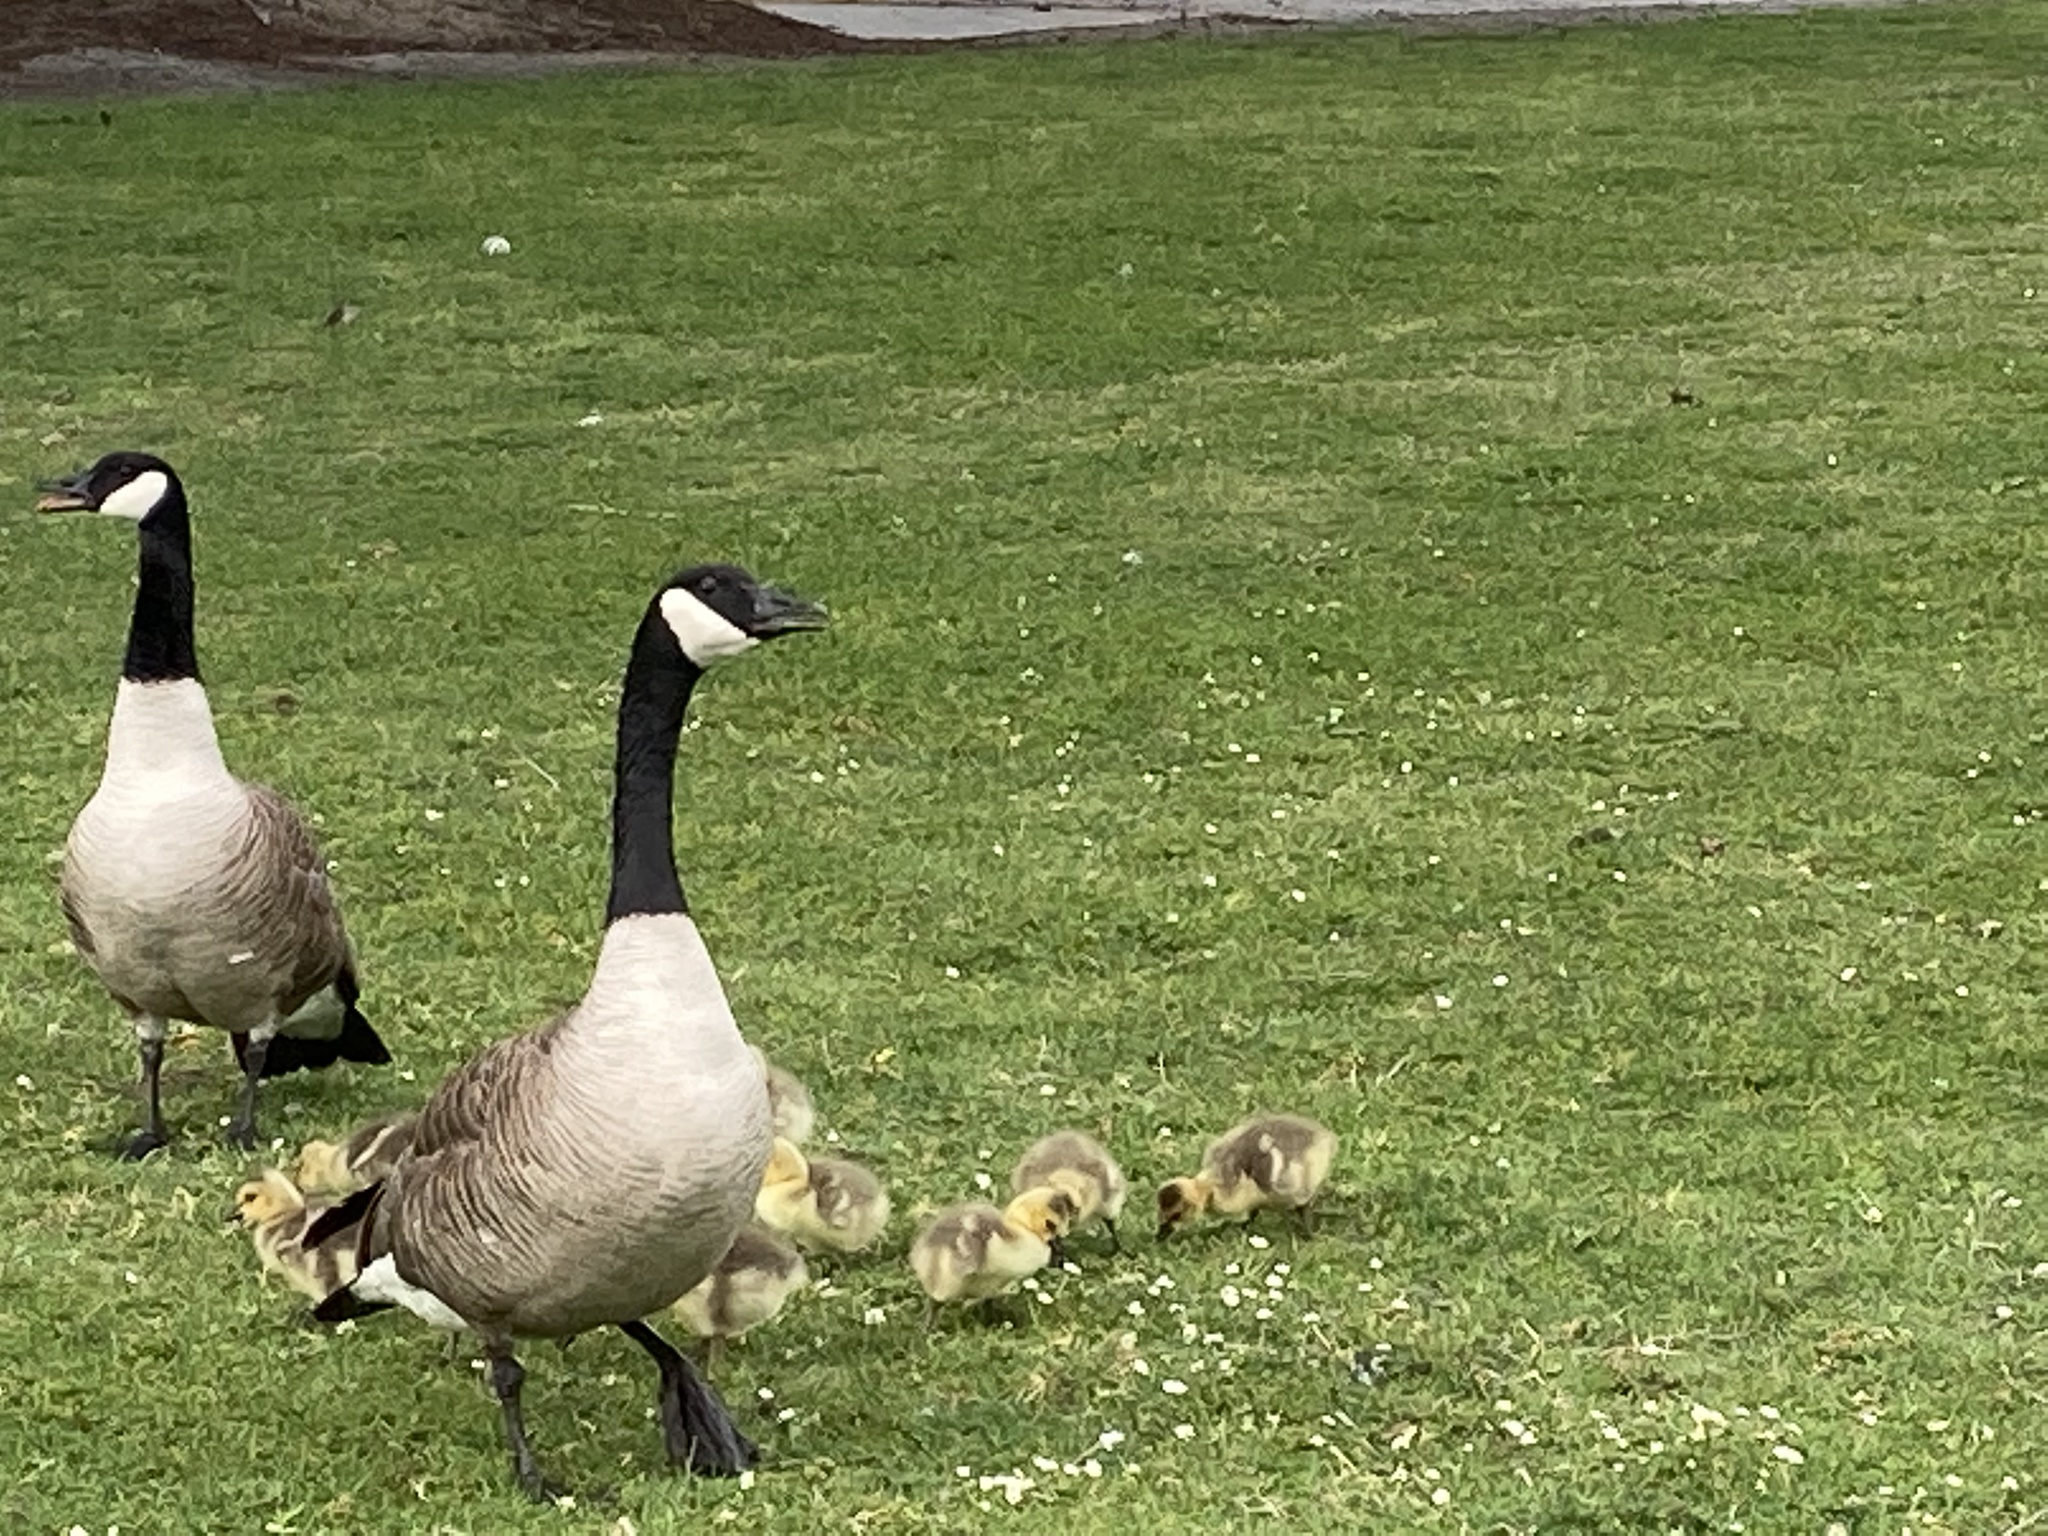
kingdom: Animalia
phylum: Chordata
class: Aves
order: Anseriformes
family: Anatidae
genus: Branta
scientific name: Branta canadensis
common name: Canada goose
